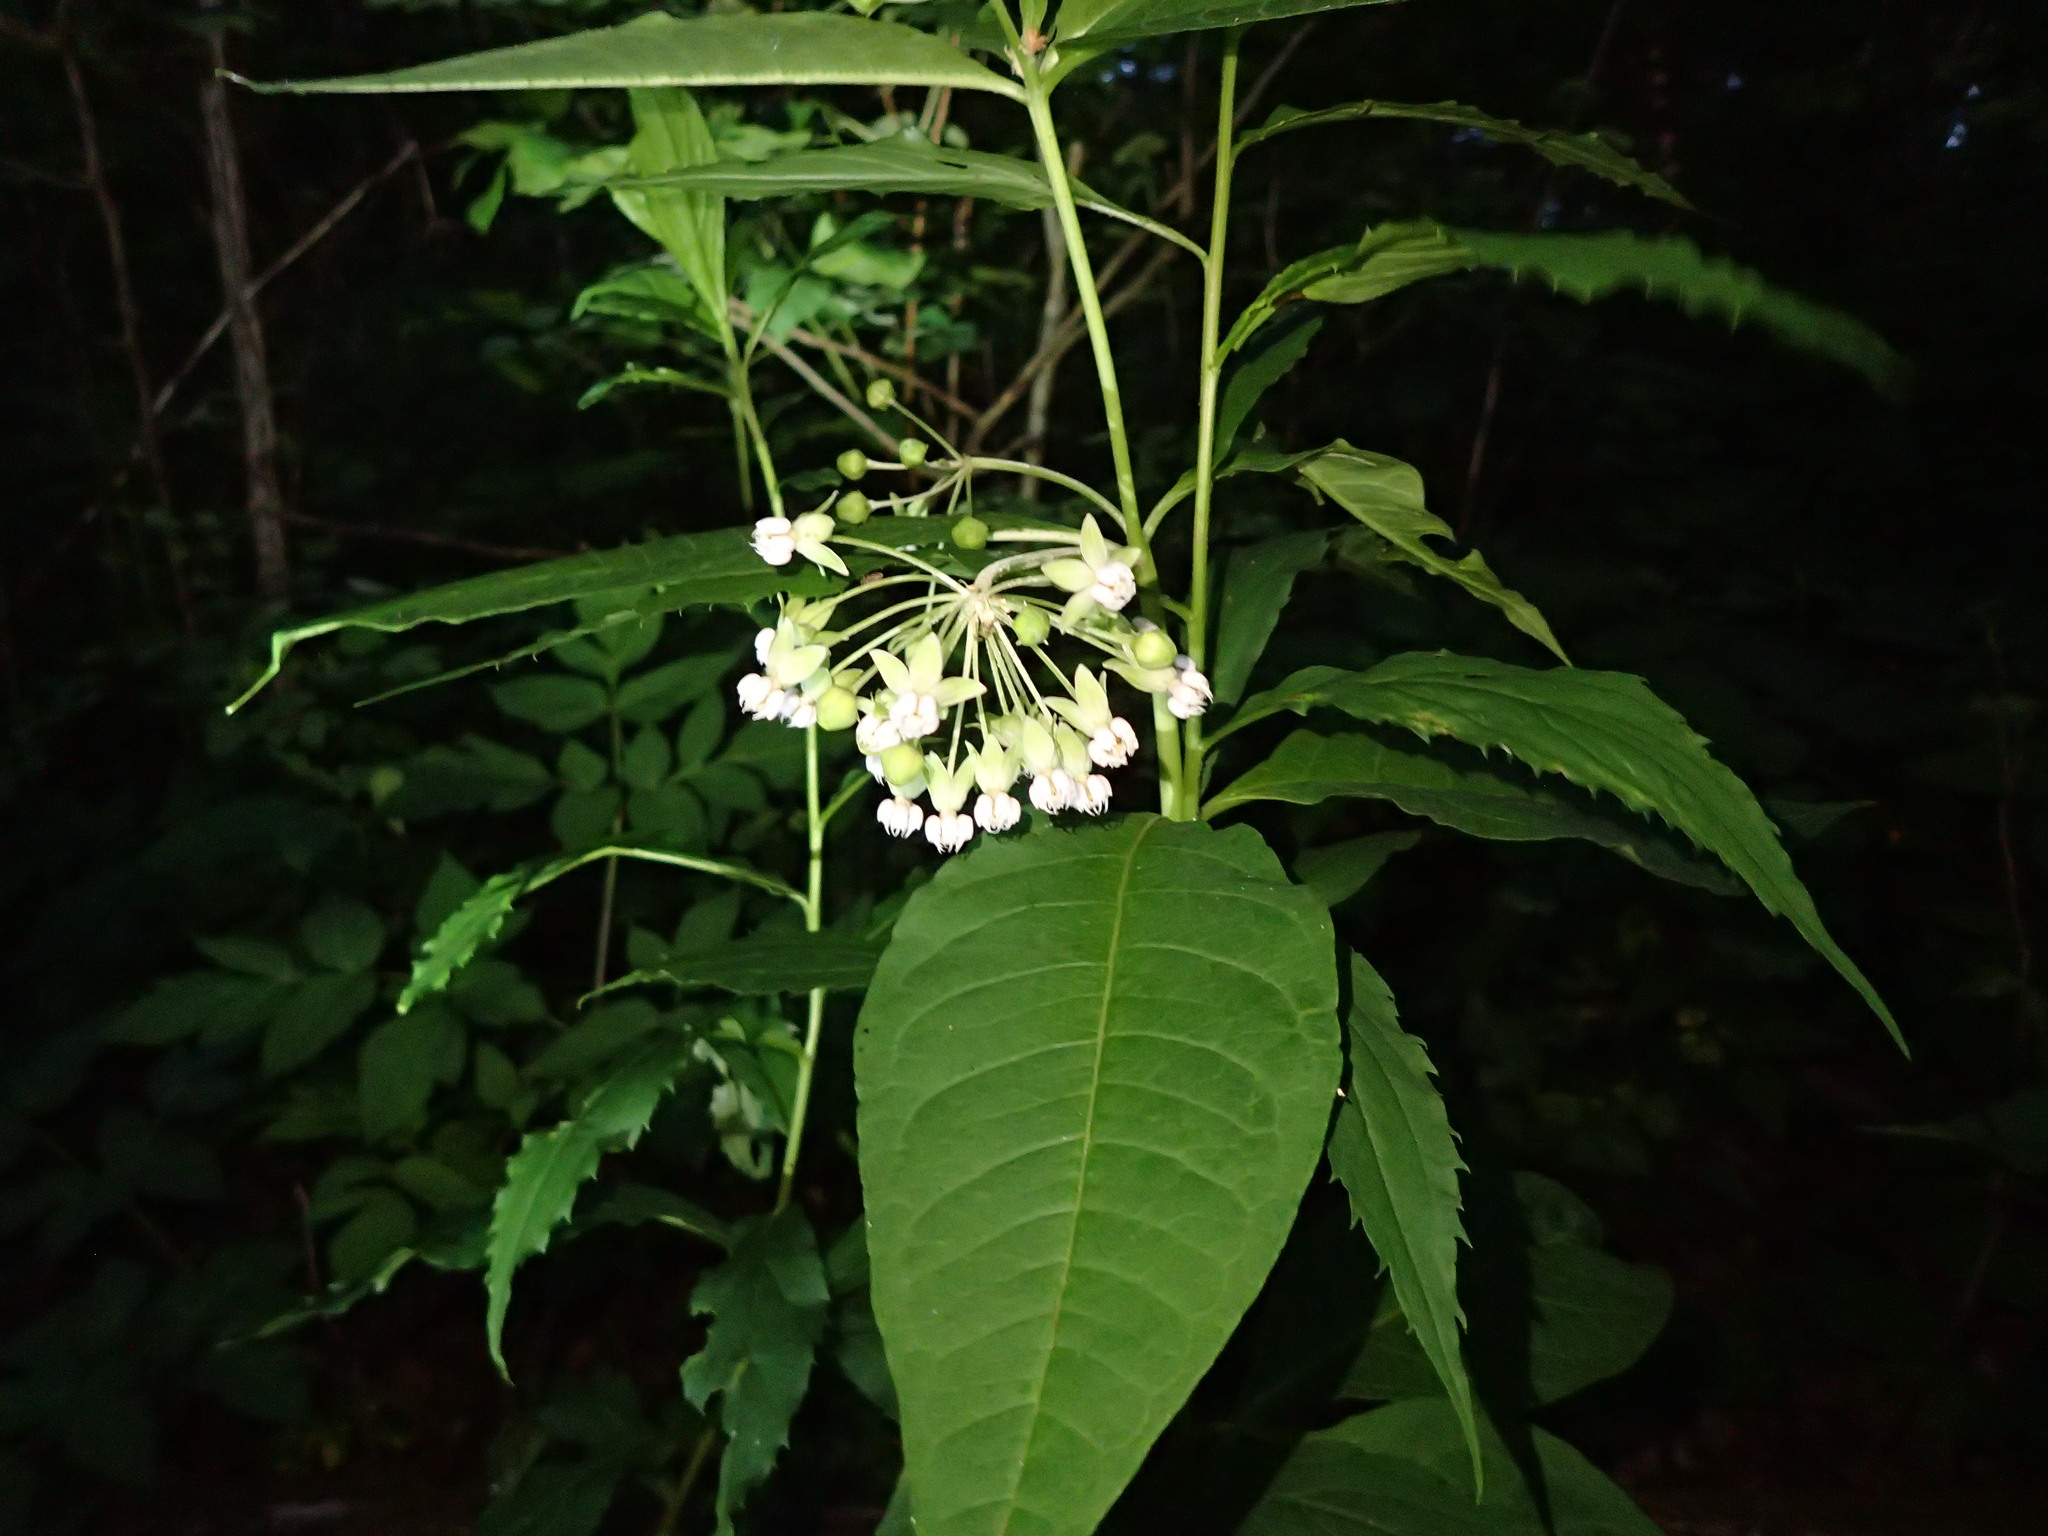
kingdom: Plantae
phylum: Tracheophyta
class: Magnoliopsida
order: Gentianales
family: Apocynaceae
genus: Asclepias
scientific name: Asclepias exaltata
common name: Poke milkweed
